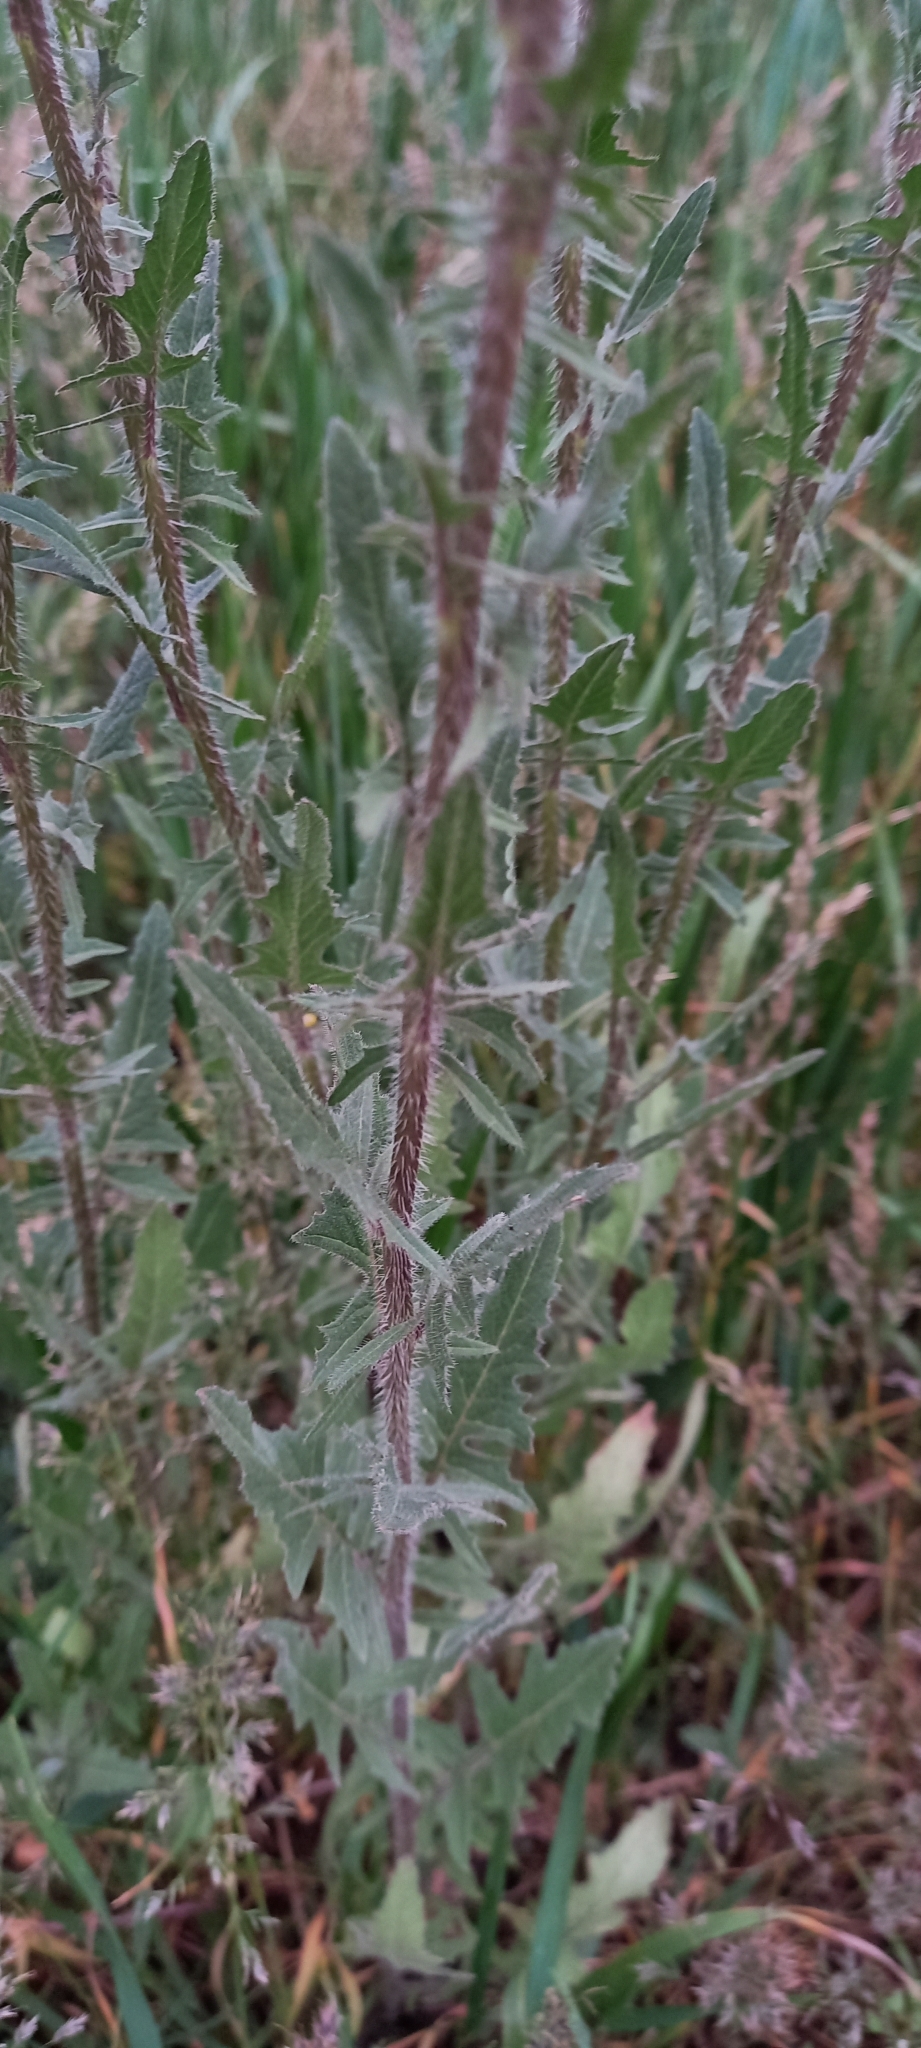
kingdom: Plantae
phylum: Tracheophyta
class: Magnoliopsida
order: Brassicales
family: Brassicaceae
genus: Sisymbrium
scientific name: Sisymbrium loeselii
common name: False london-rocket
